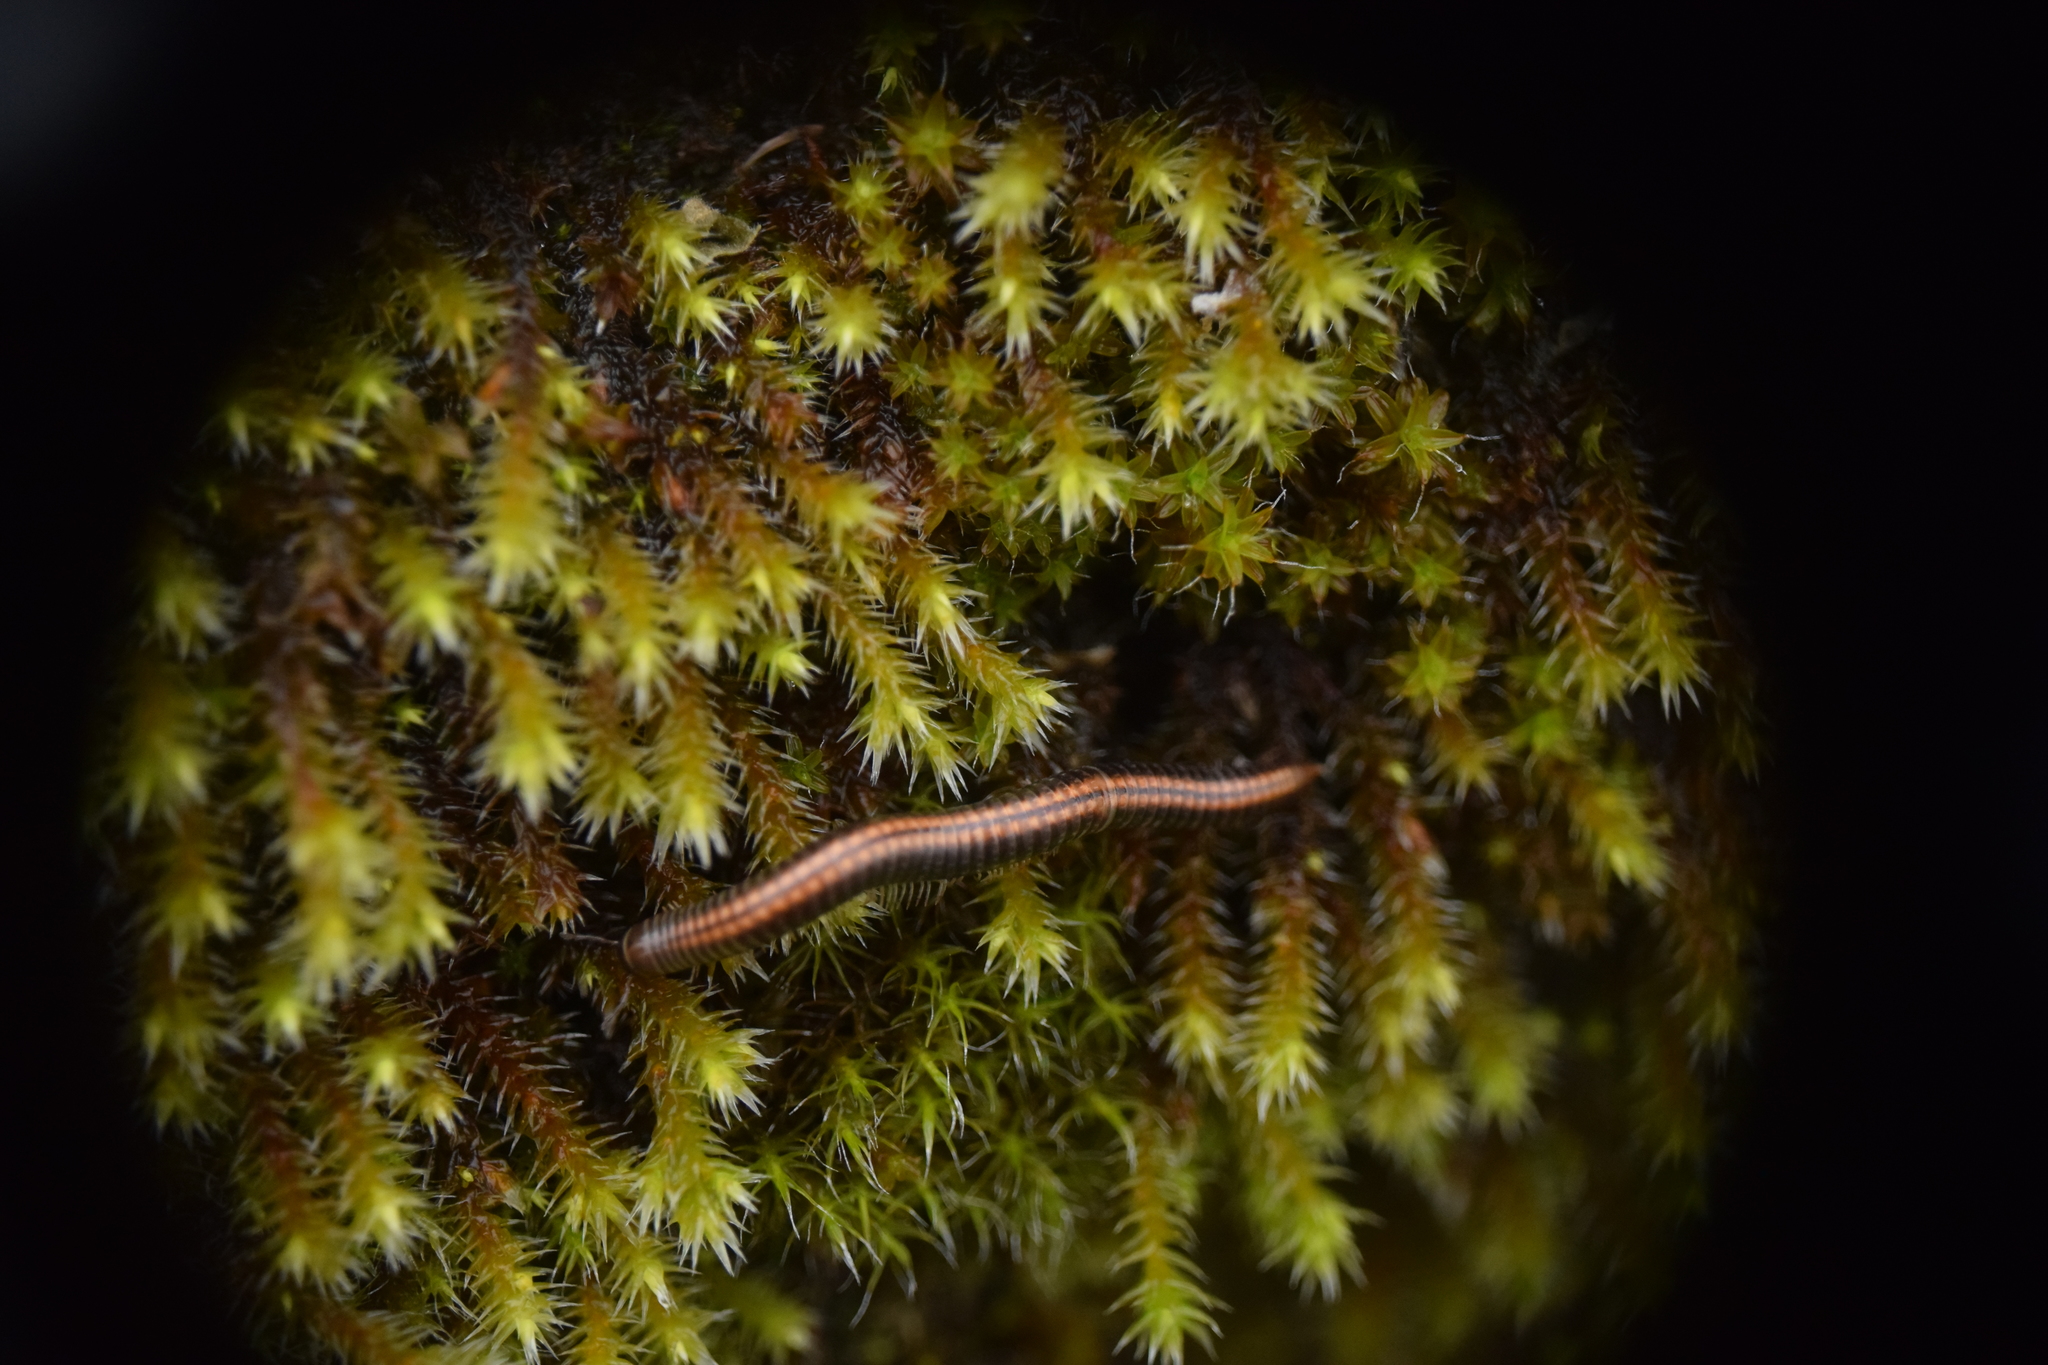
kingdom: Animalia
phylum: Arthropoda
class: Diplopoda
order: Julida
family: Julidae
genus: Ommatoiulus
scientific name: Ommatoiulus sabulosus
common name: Striped millipede
